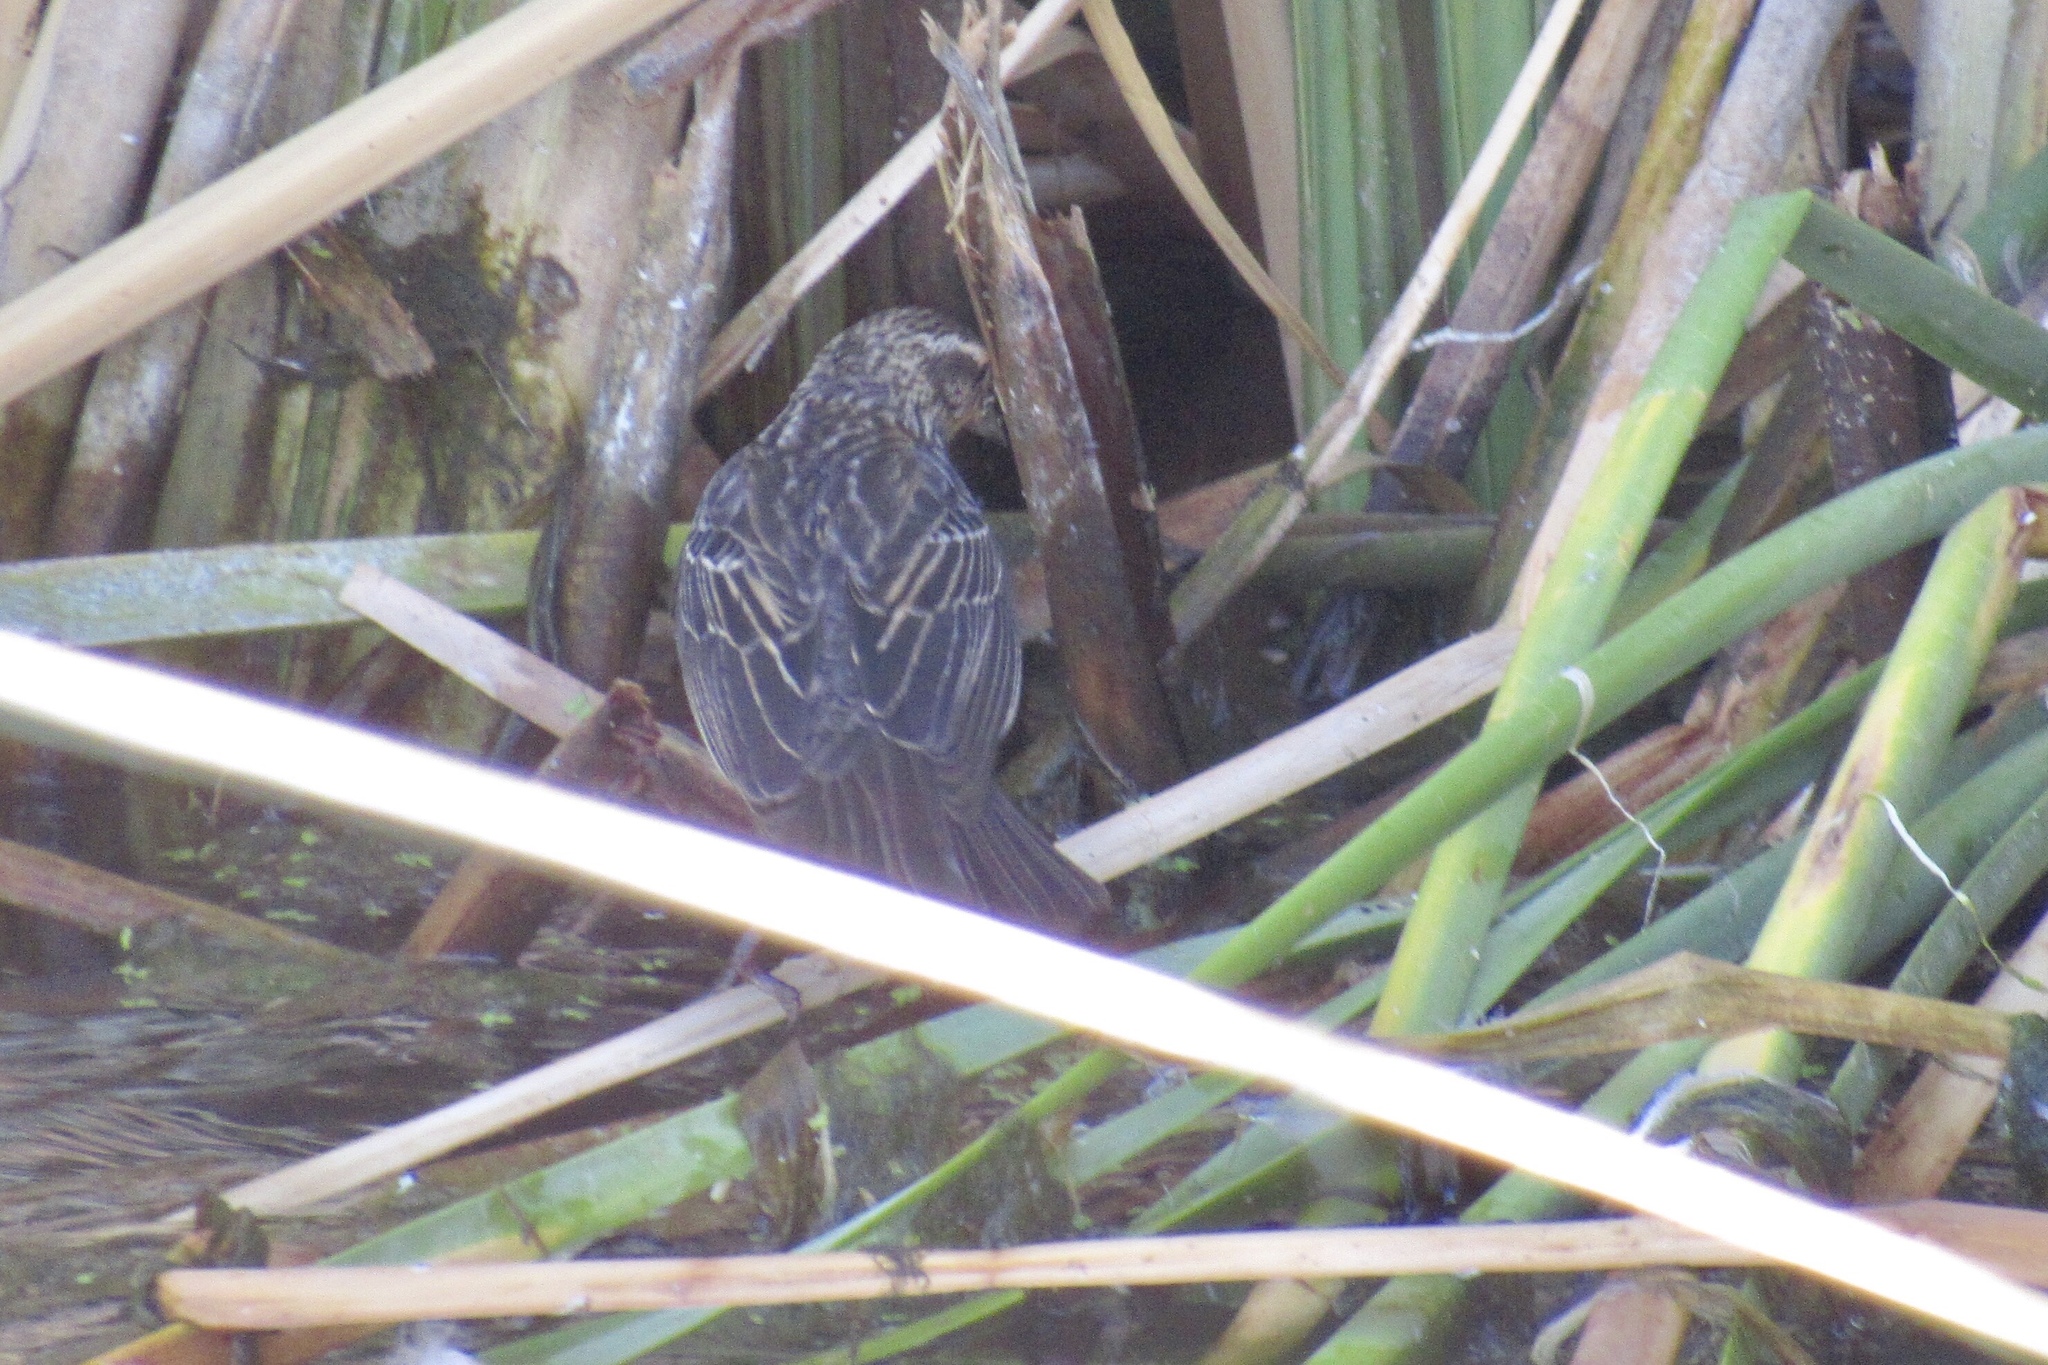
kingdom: Animalia
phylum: Chordata
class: Aves
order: Passeriformes
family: Icteridae
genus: Agelaius
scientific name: Agelaius phoeniceus
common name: Red-winged blackbird
